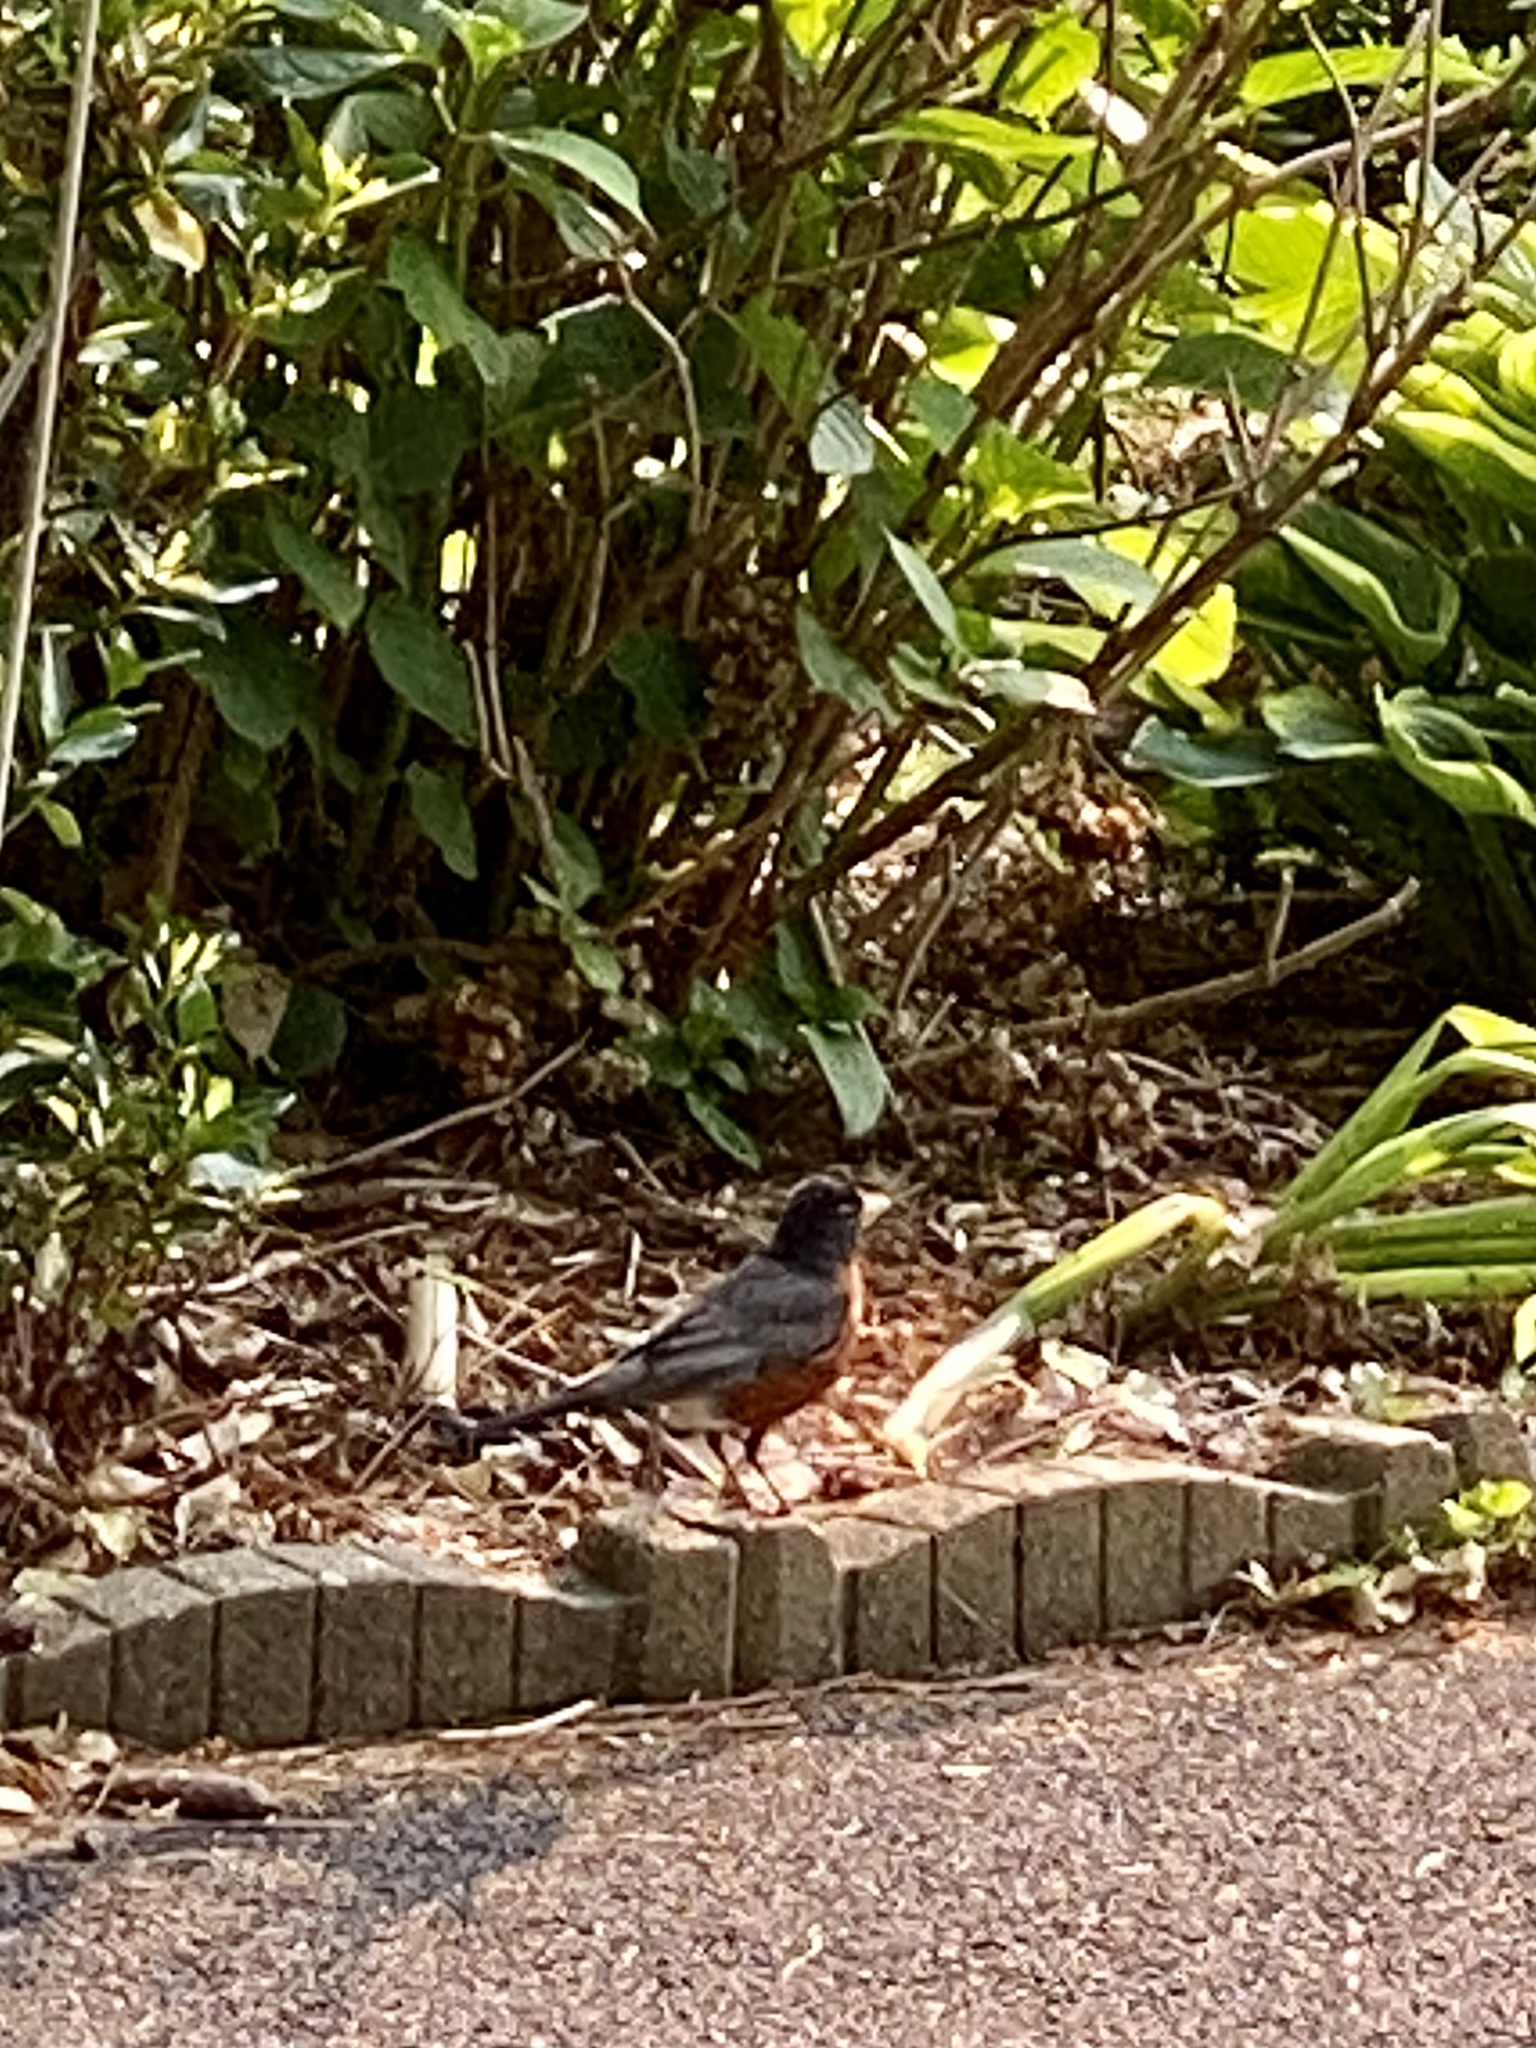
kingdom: Animalia
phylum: Chordata
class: Aves
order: Passeriformes
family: Turdidae
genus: Turdus
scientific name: Turdus migratorius
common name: American robin
